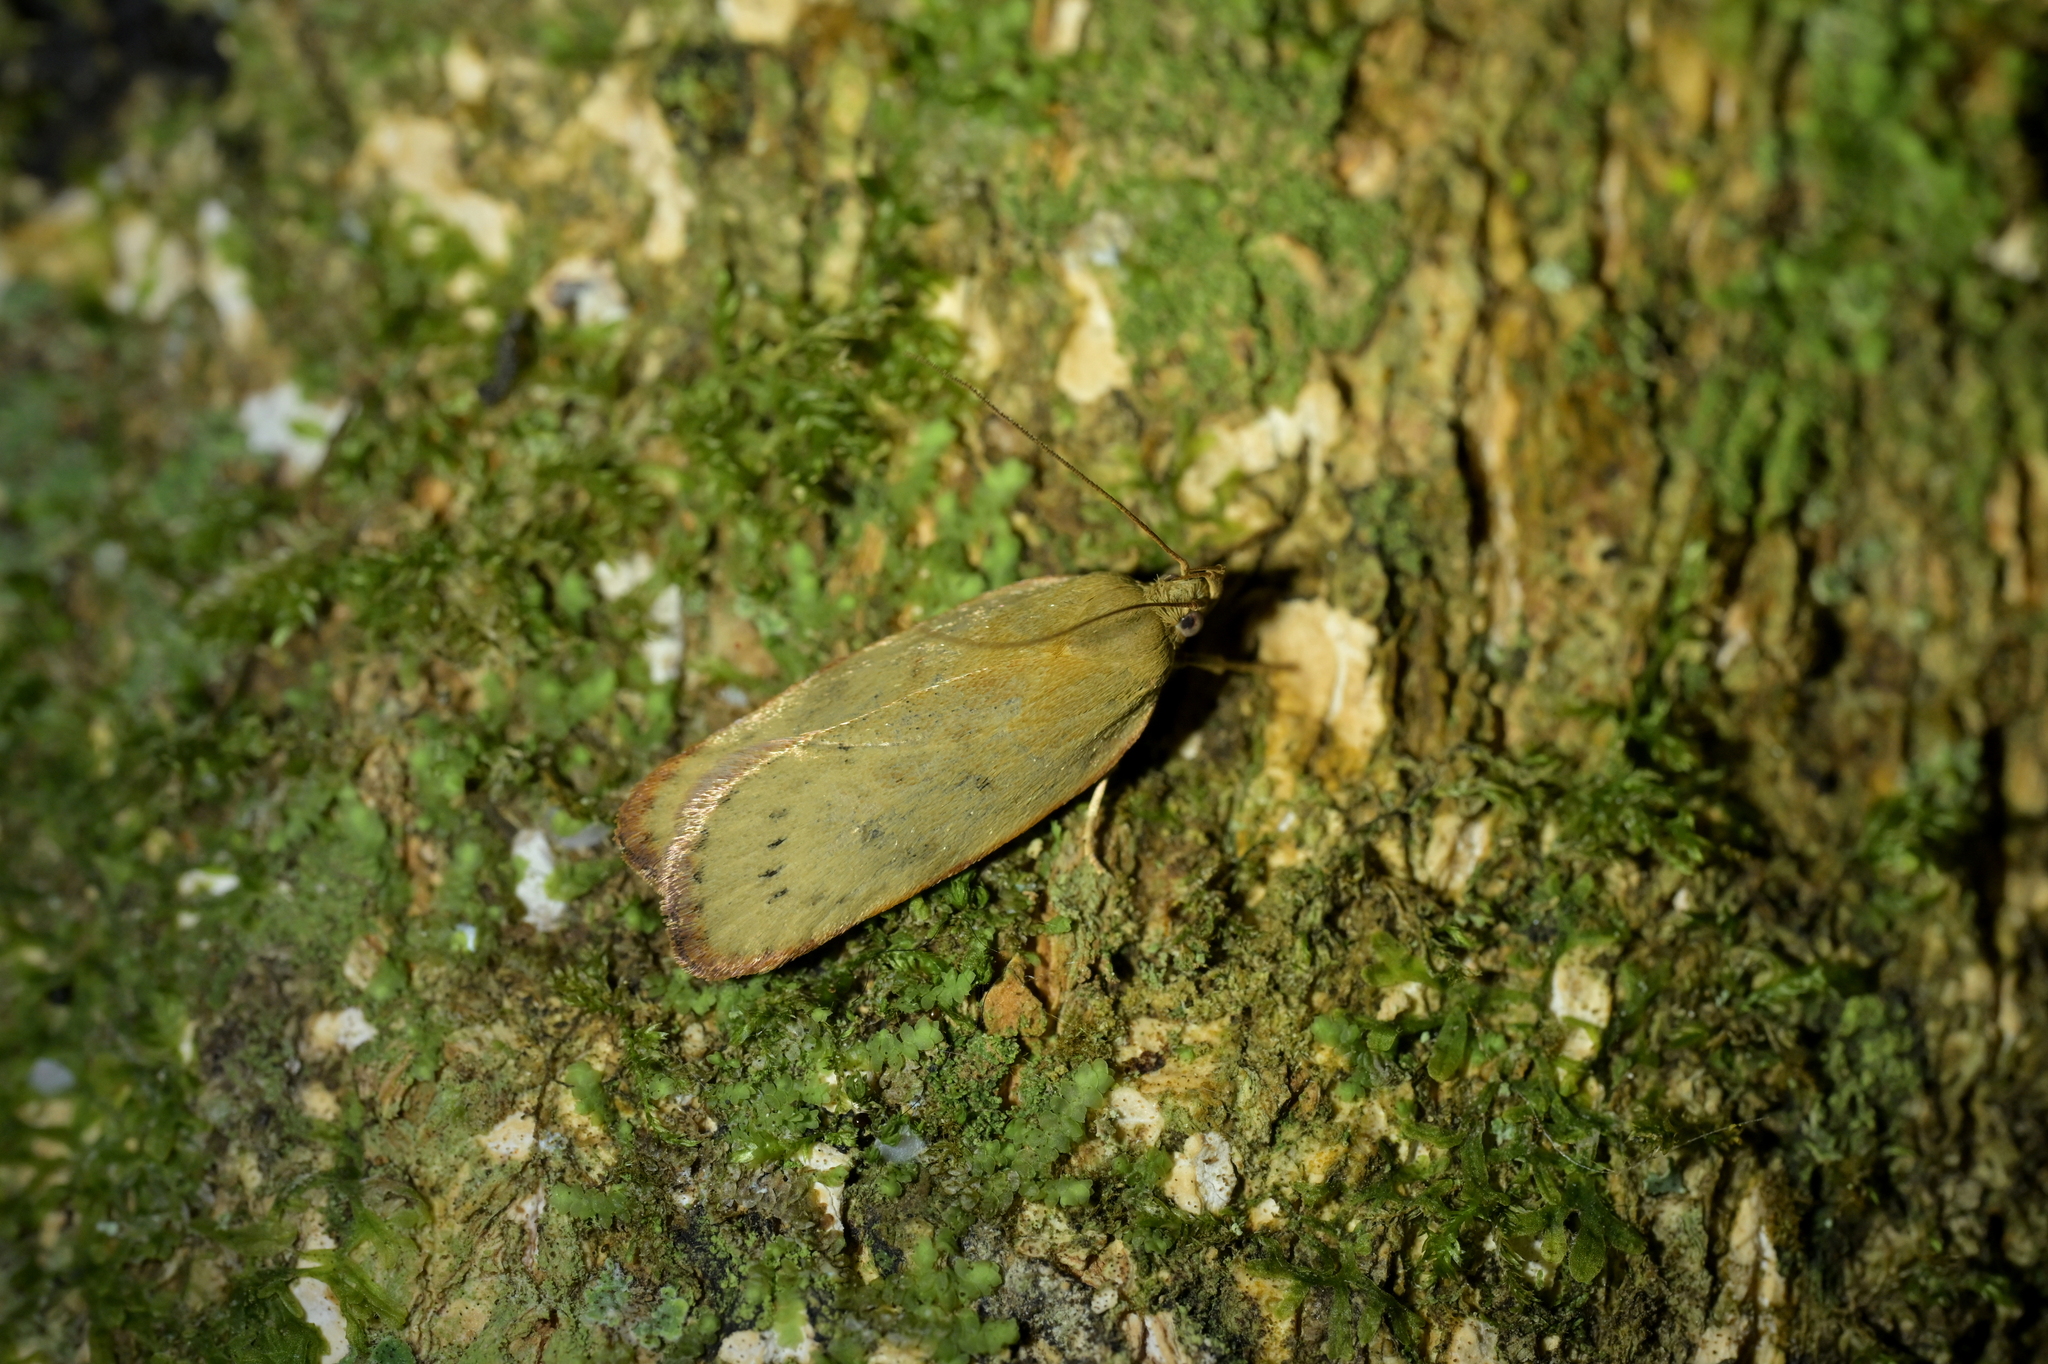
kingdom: Animalia
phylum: Arthropoda
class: Insecta
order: Lepidoptera
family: Depressariidae
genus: Phaeosaces
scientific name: Phaeosaces coarctatella
